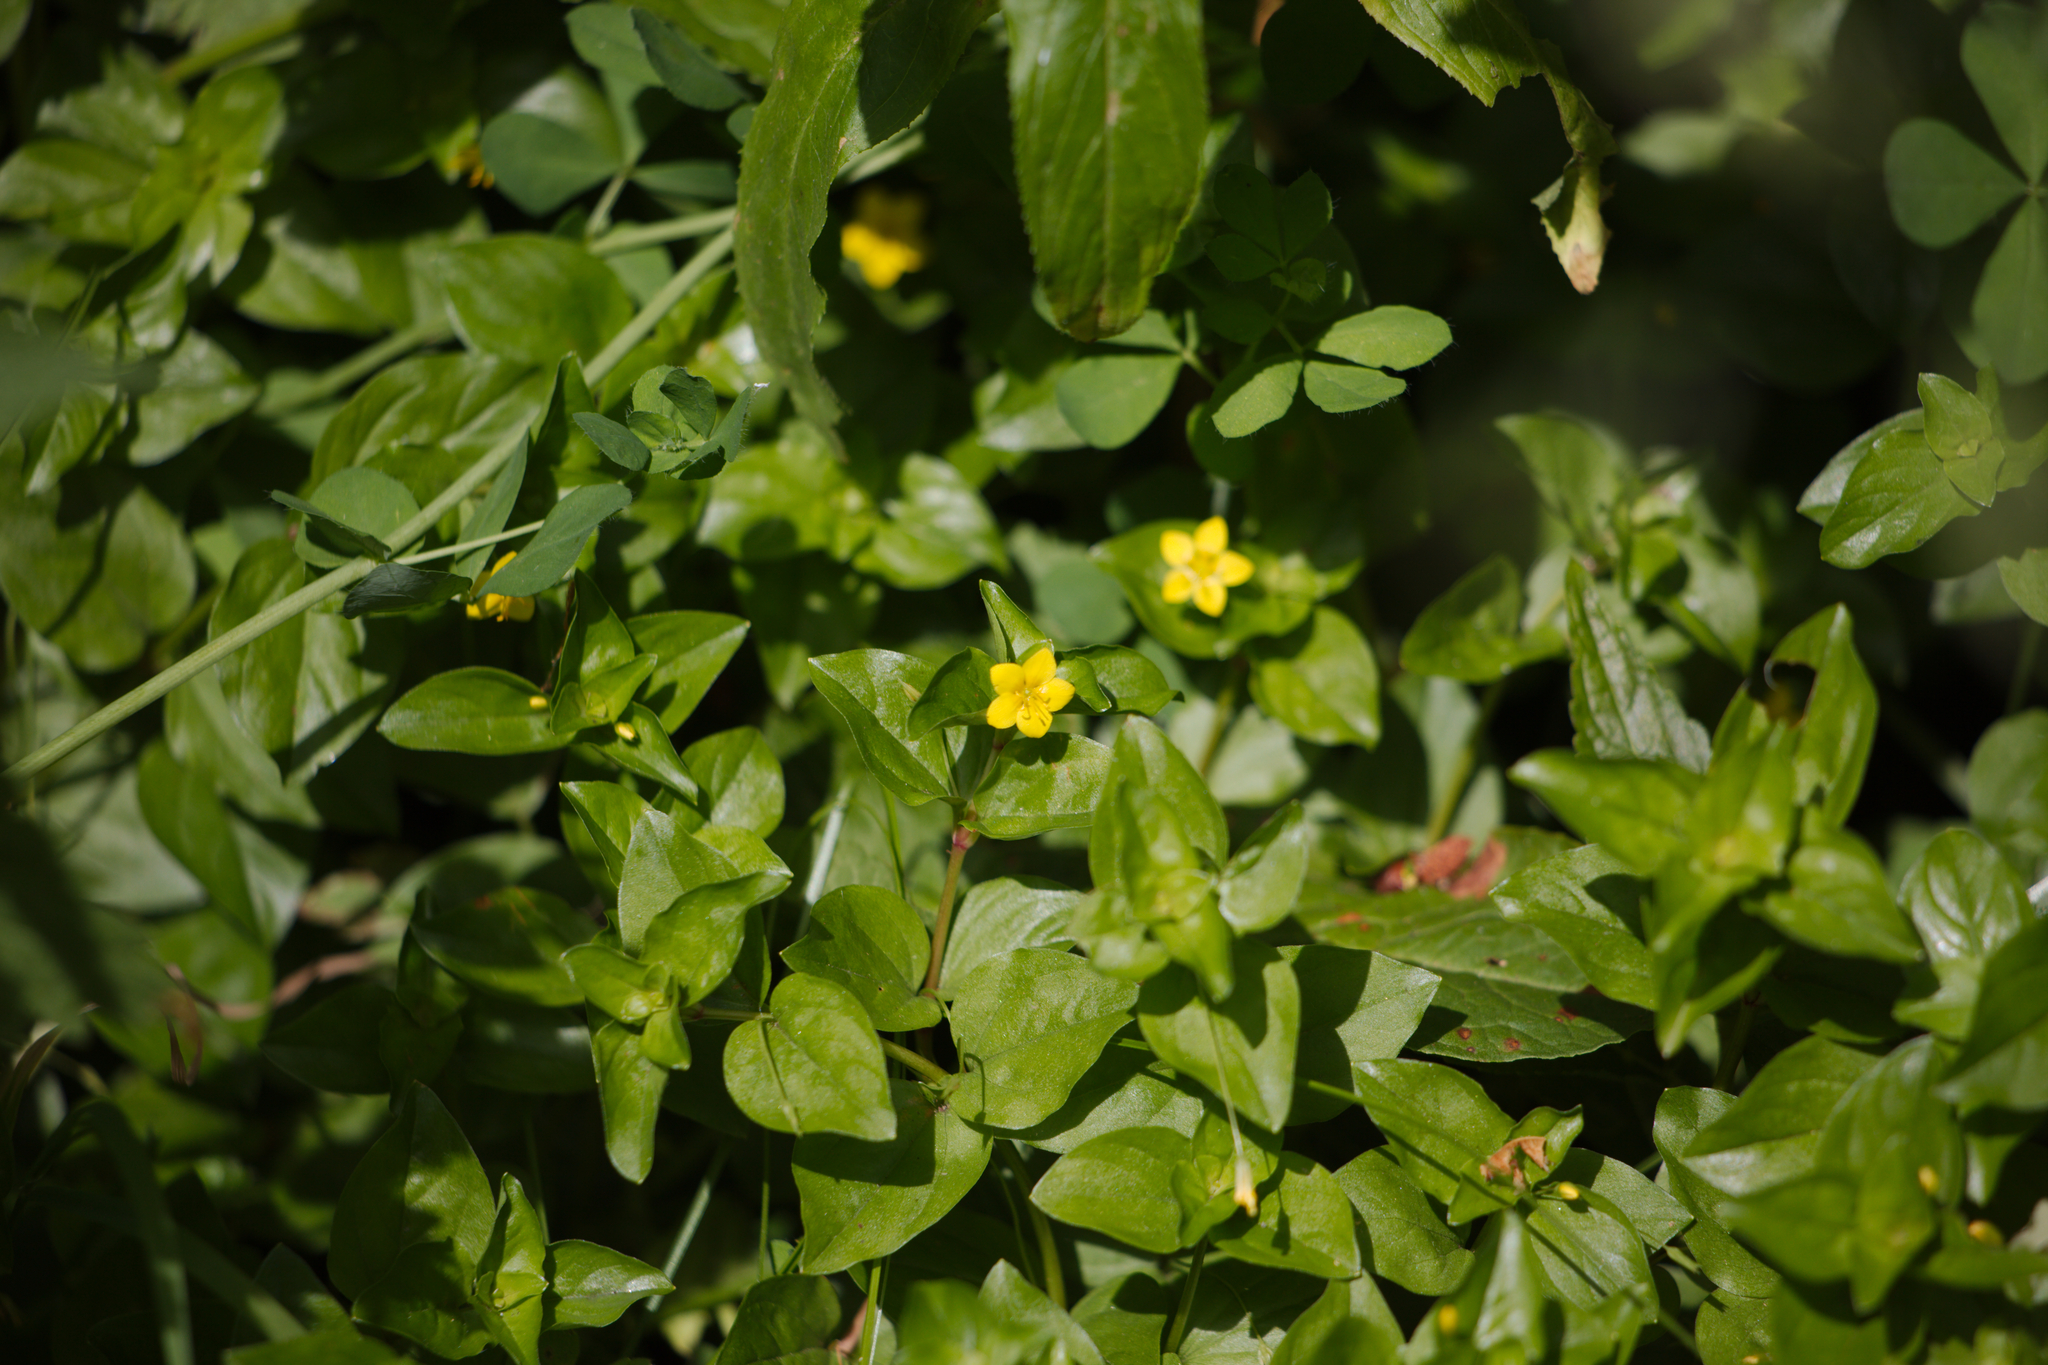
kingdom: Plantae
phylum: Tracheophyta
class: Magnoliopsida
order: Ericales
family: Primulaceae
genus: Lysimachia
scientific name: Lysimachia nemorum
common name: Yellow pimpernel
